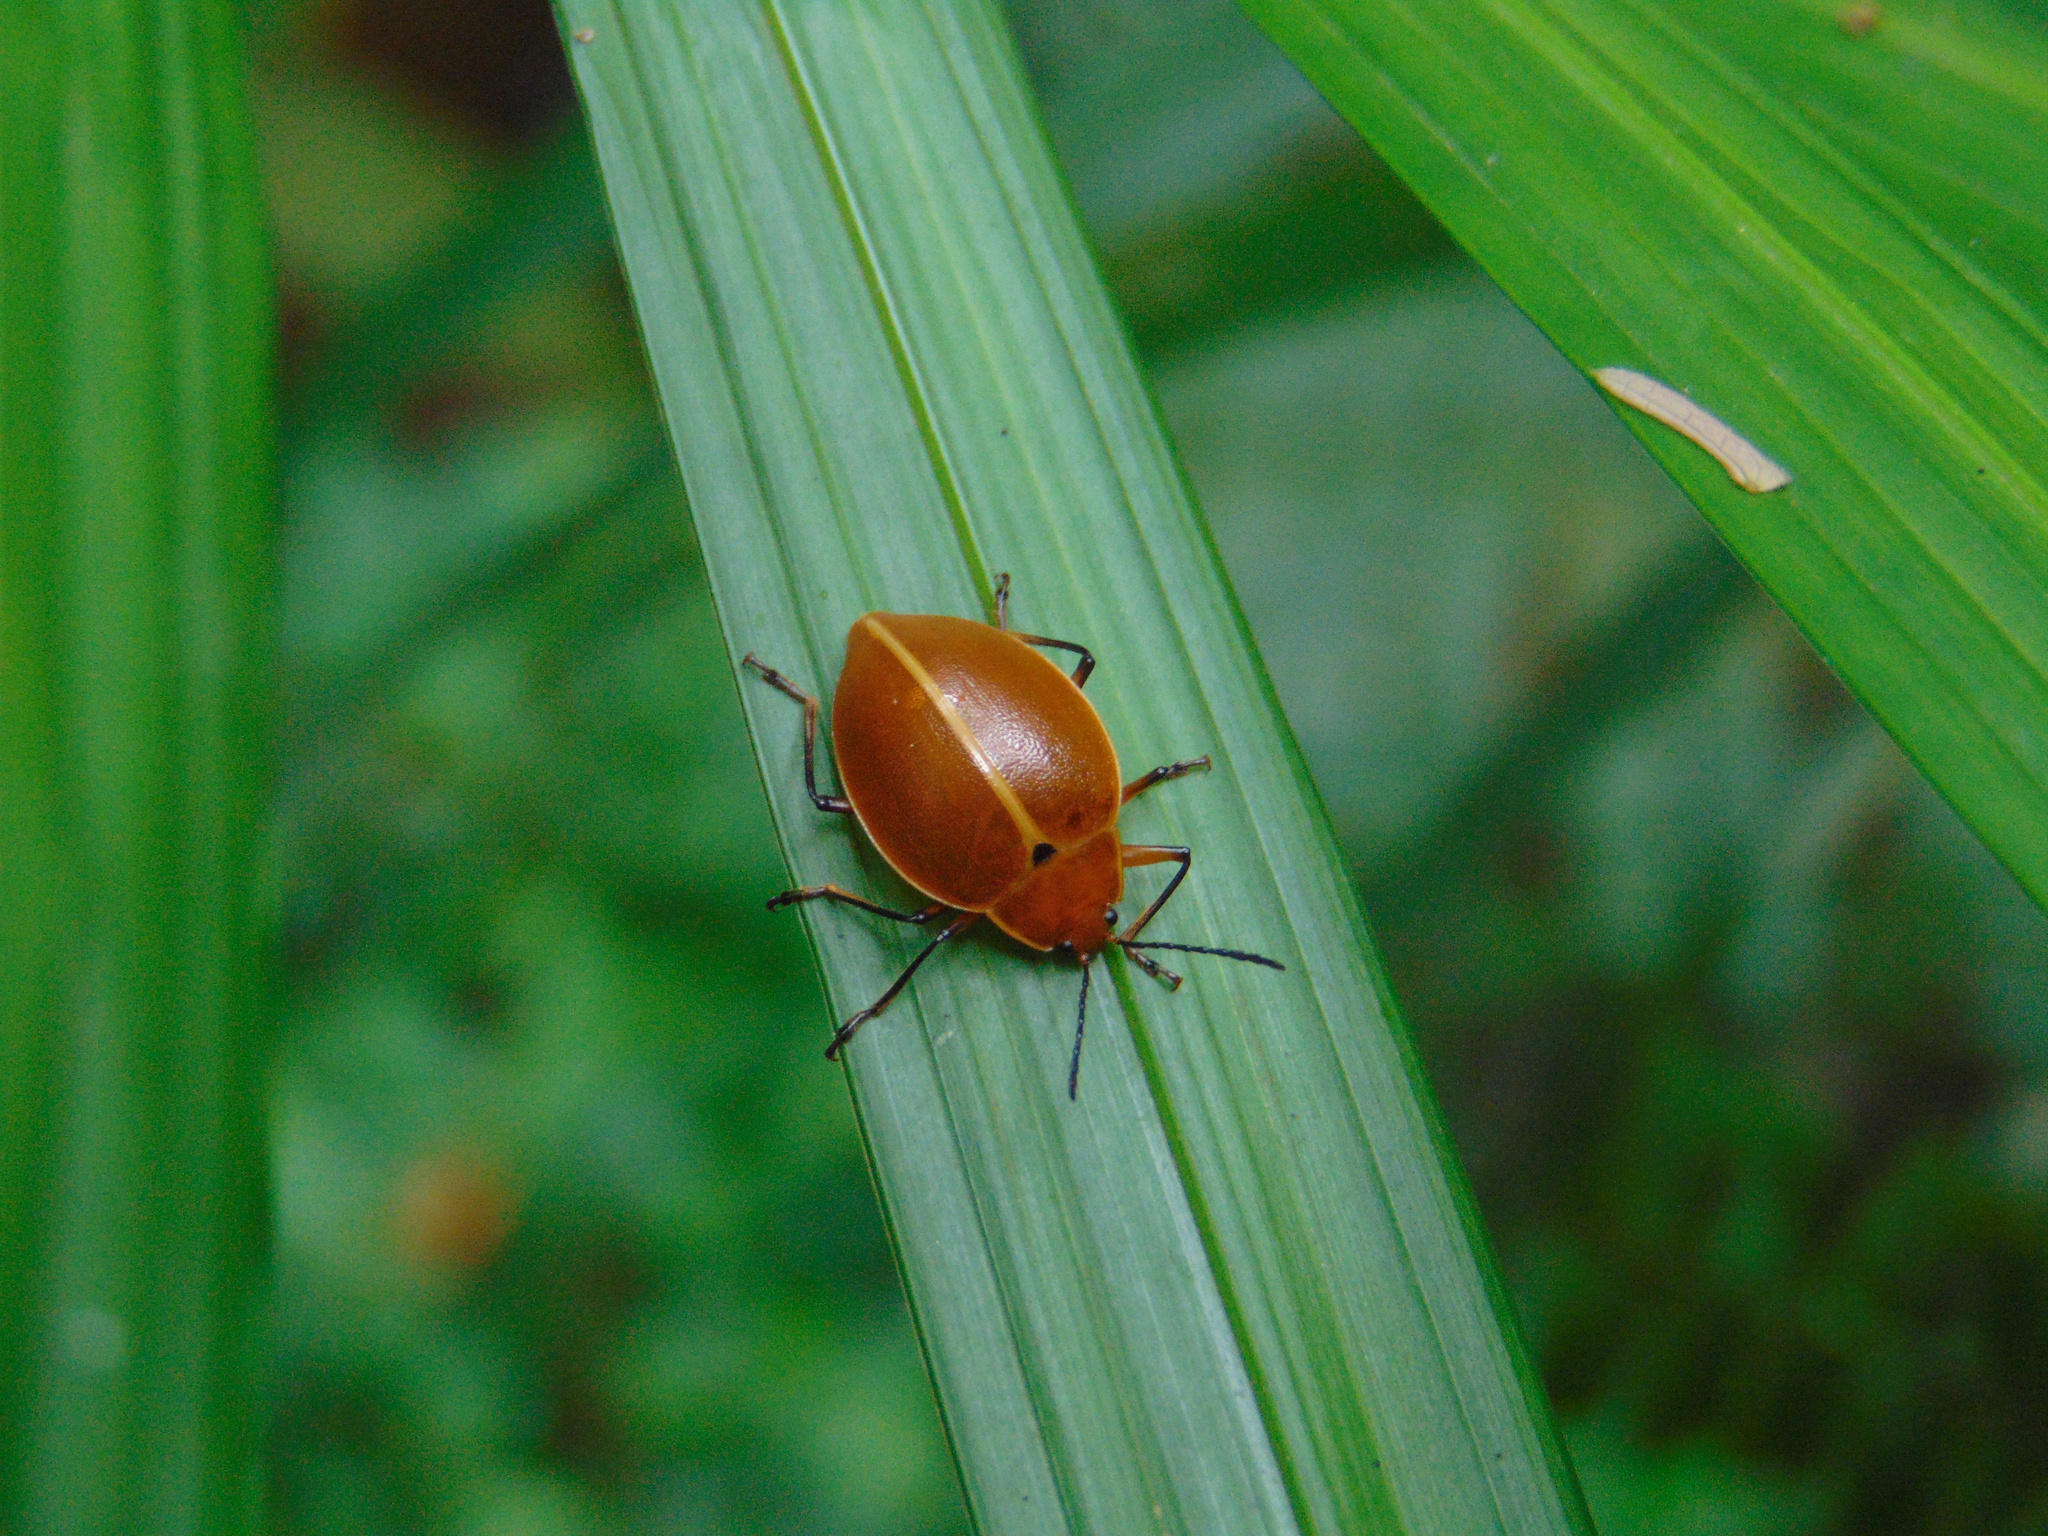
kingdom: Animalia
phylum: Arthropoda
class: Insecta
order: Coleoptera
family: Erotylidae
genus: Ellipticus
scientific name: Ellipticus
